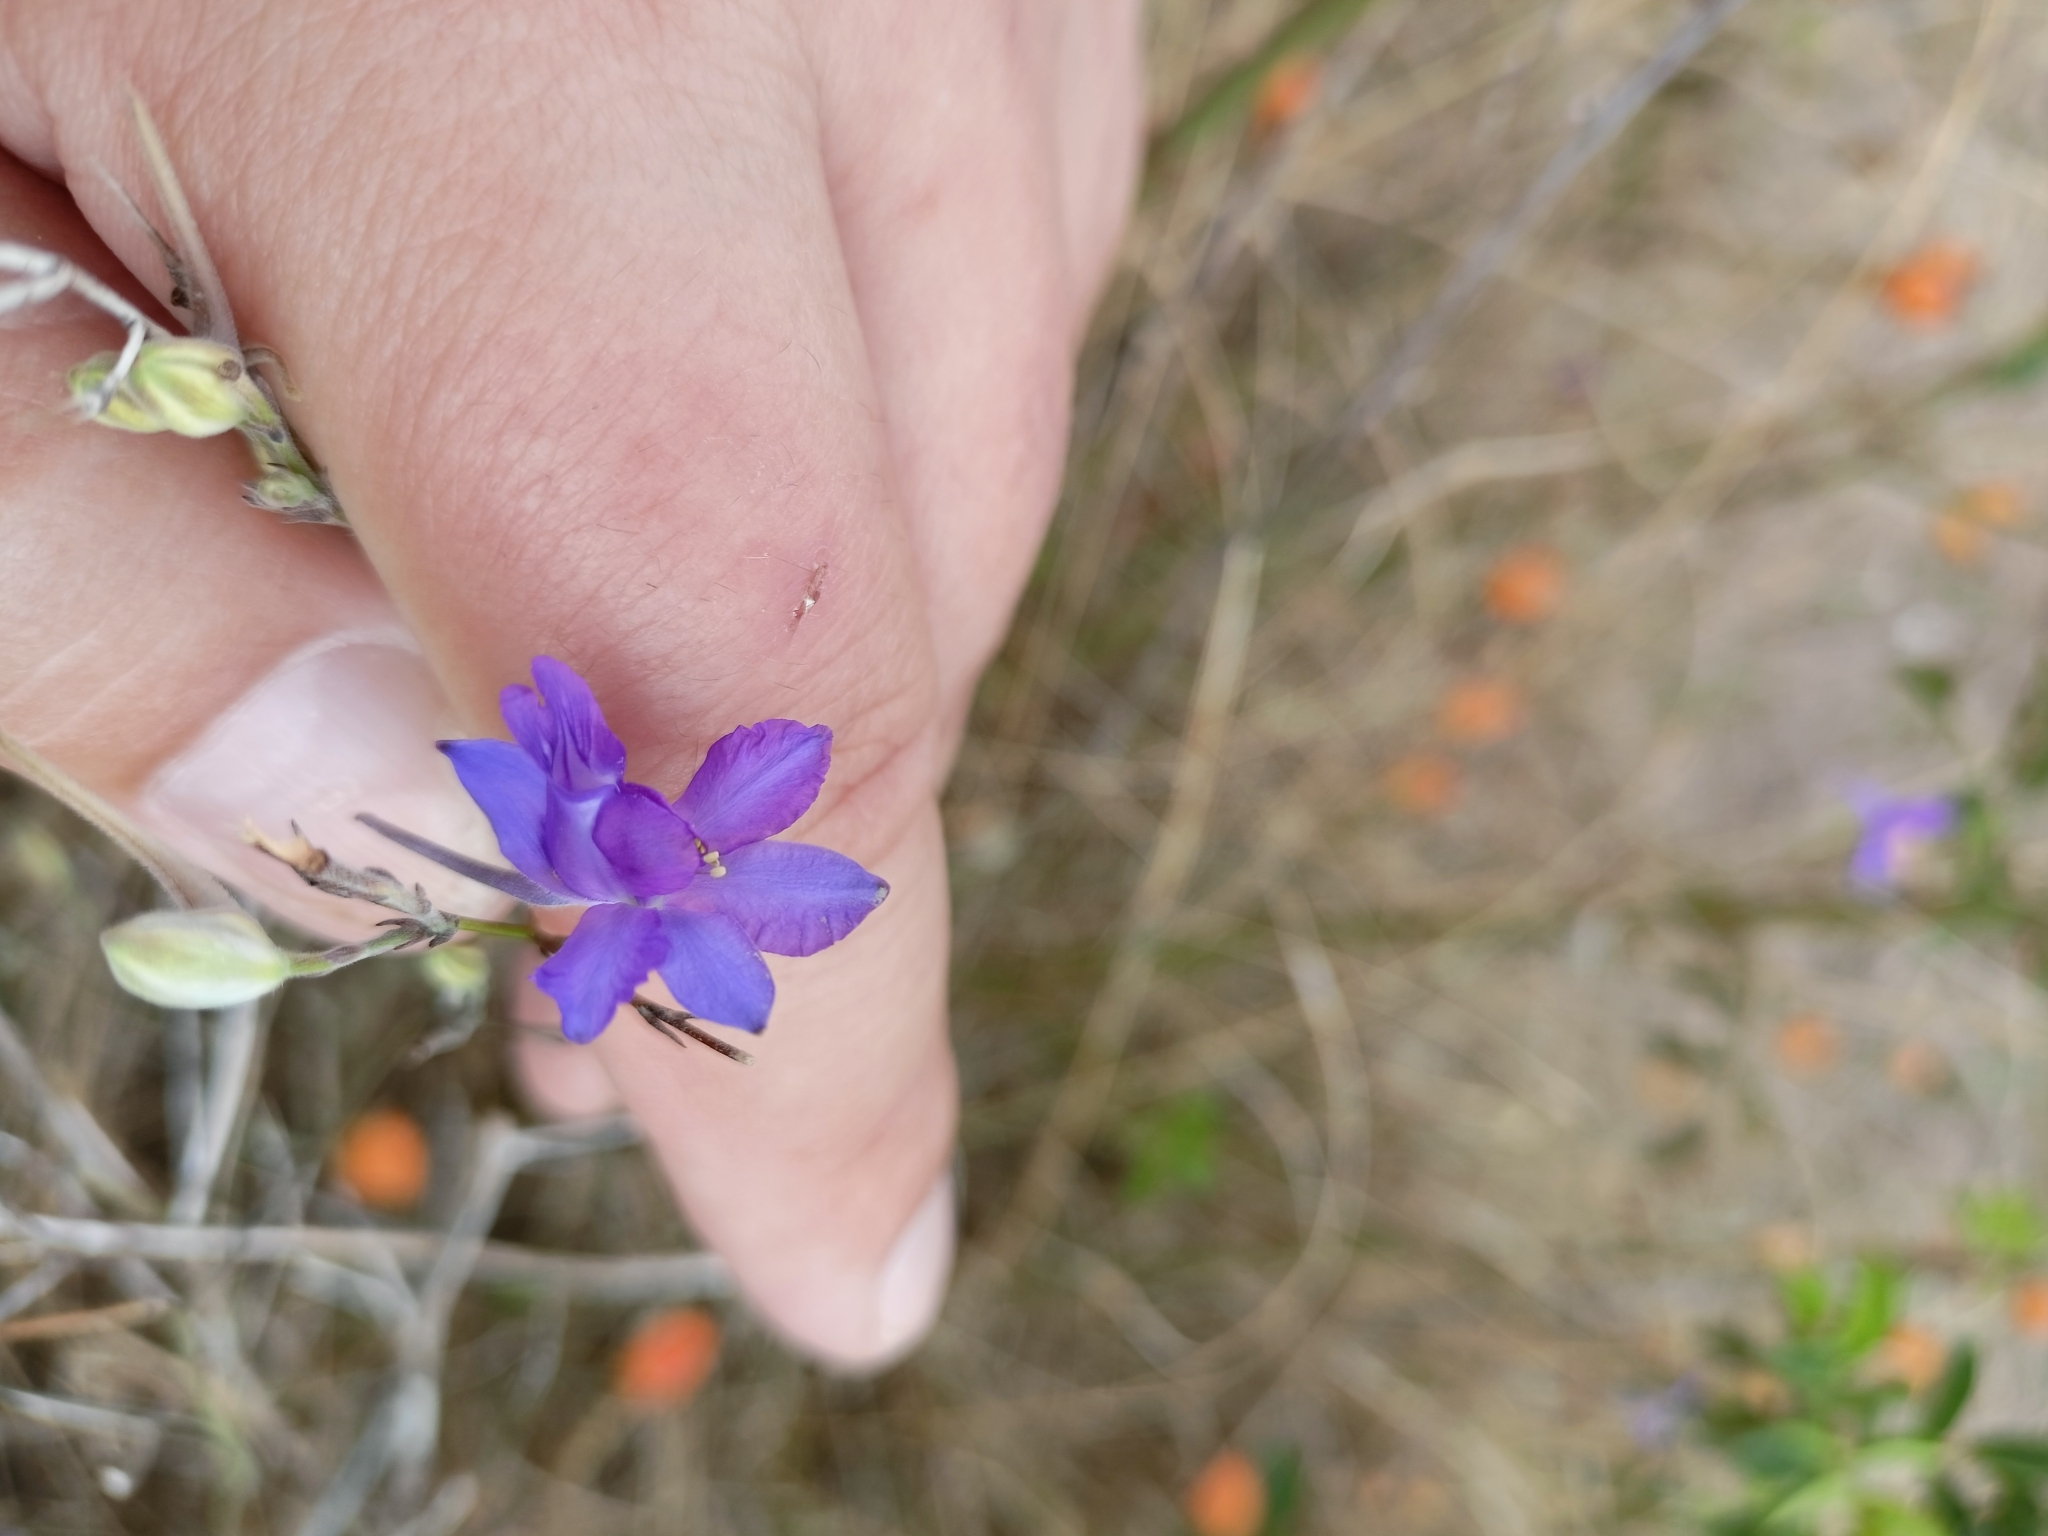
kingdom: Plantae
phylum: Tracheophyta
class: Magnoliopsida
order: Ranunculales
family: Ranunculaceae
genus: Delphinium
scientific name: Delphinium consolida
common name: Branching larkspur
